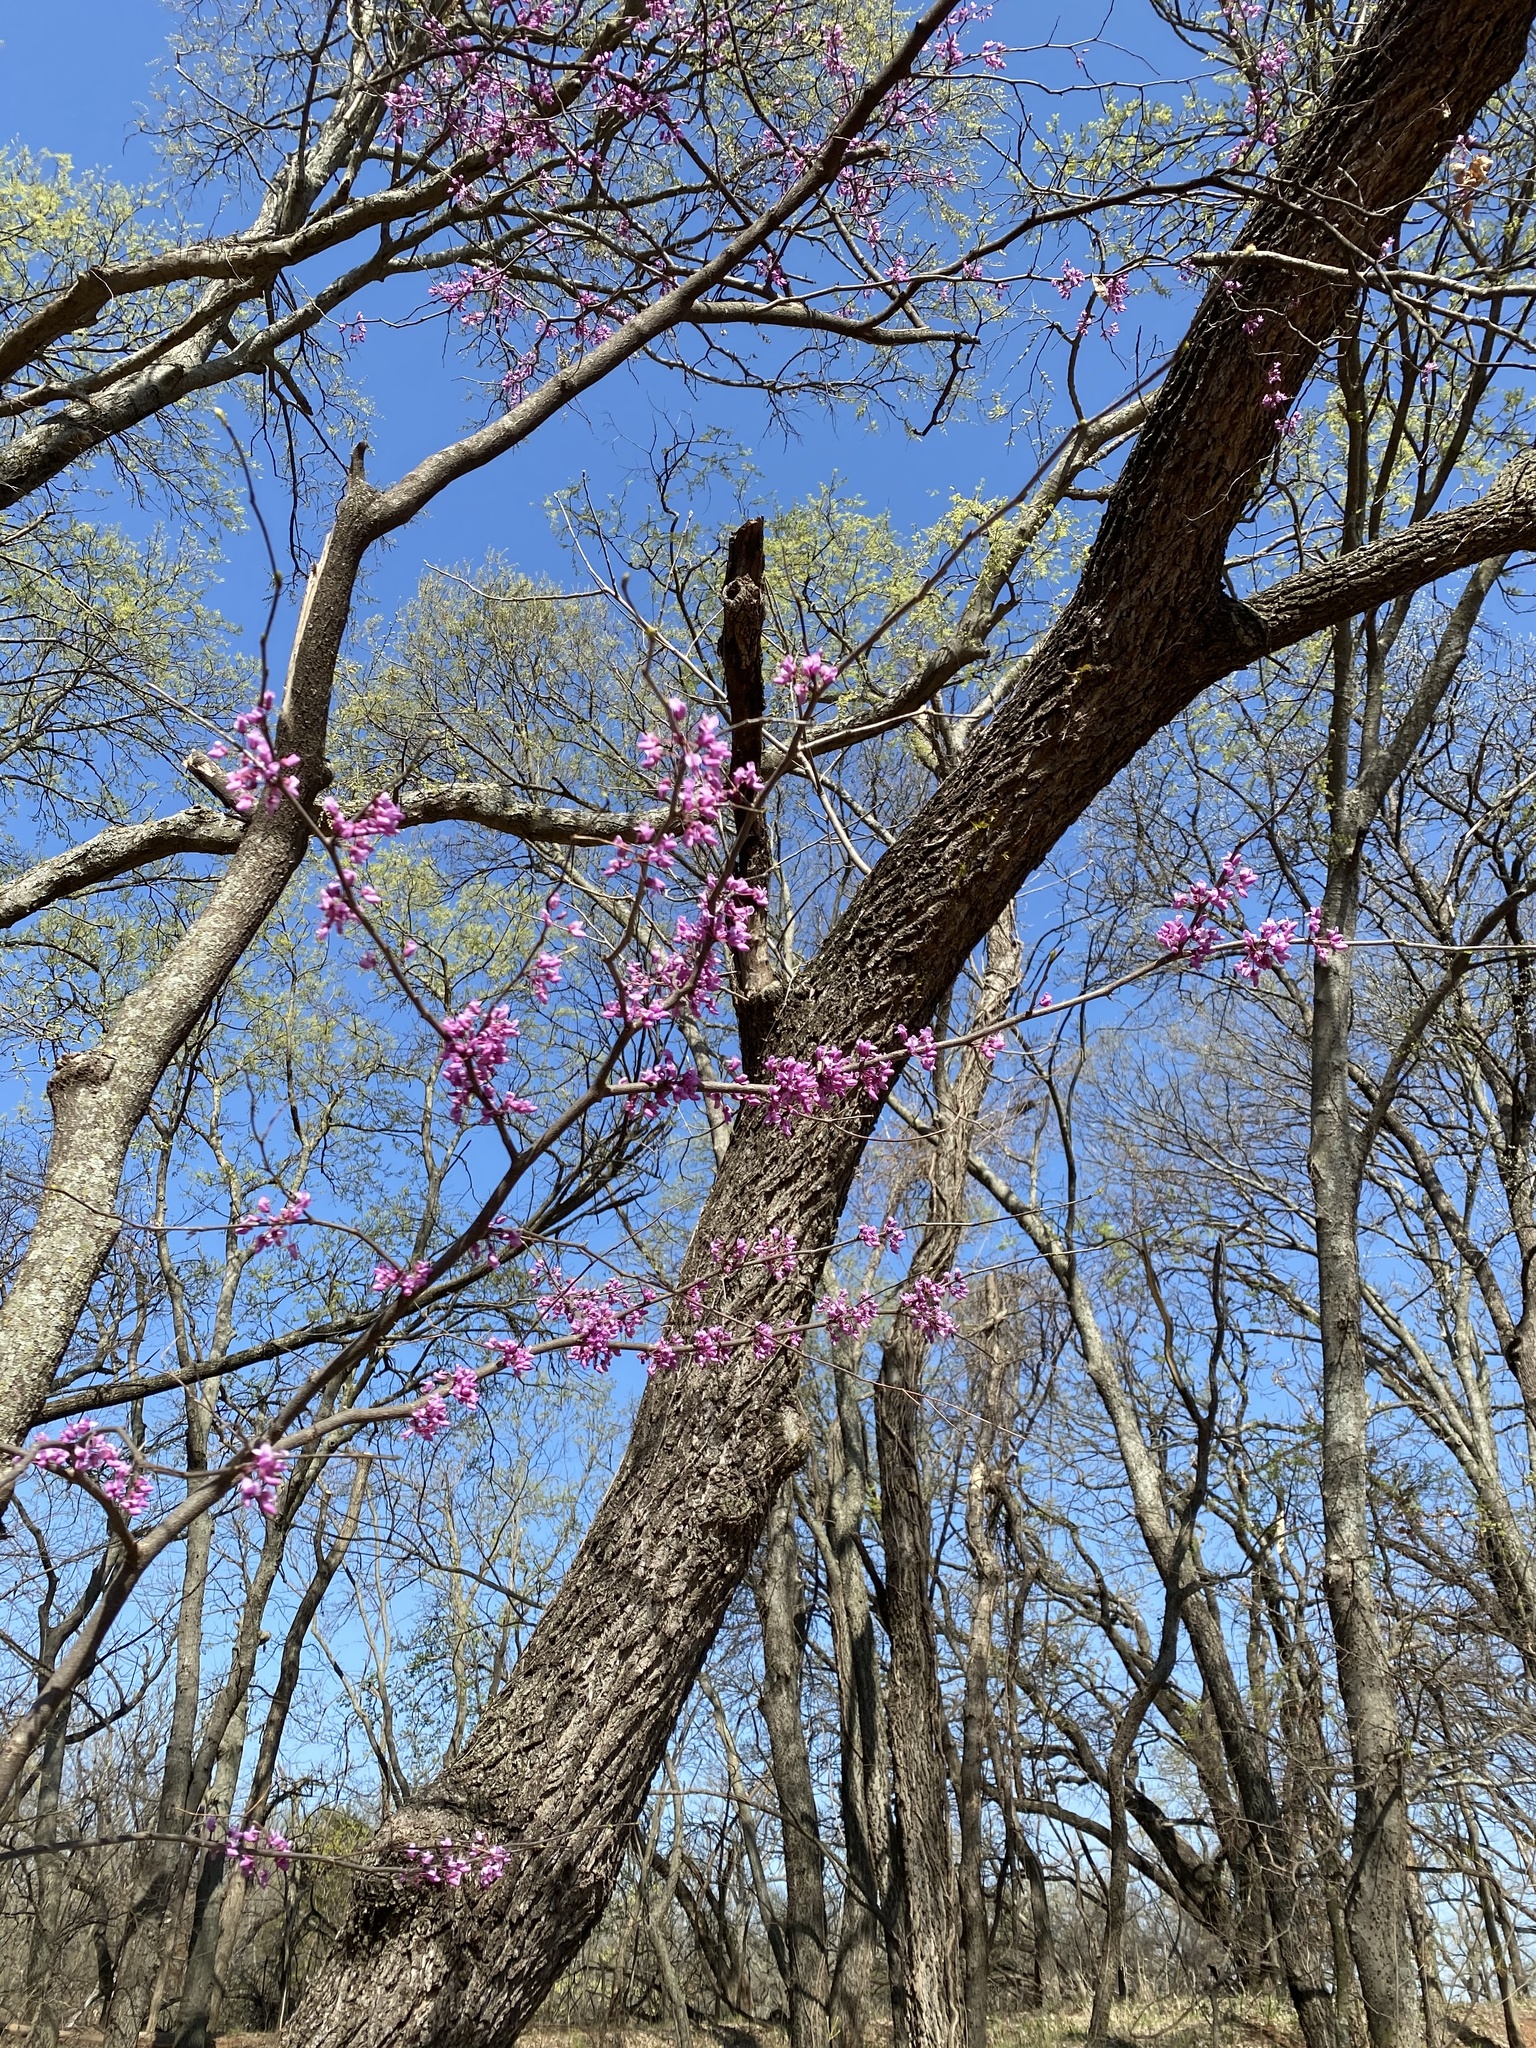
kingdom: Plantae
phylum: Tracheophyta
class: Magnoliopsida
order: Fabales
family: Fabaceae
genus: Cercis
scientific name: Cercis canadensis
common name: Eastern redbud
